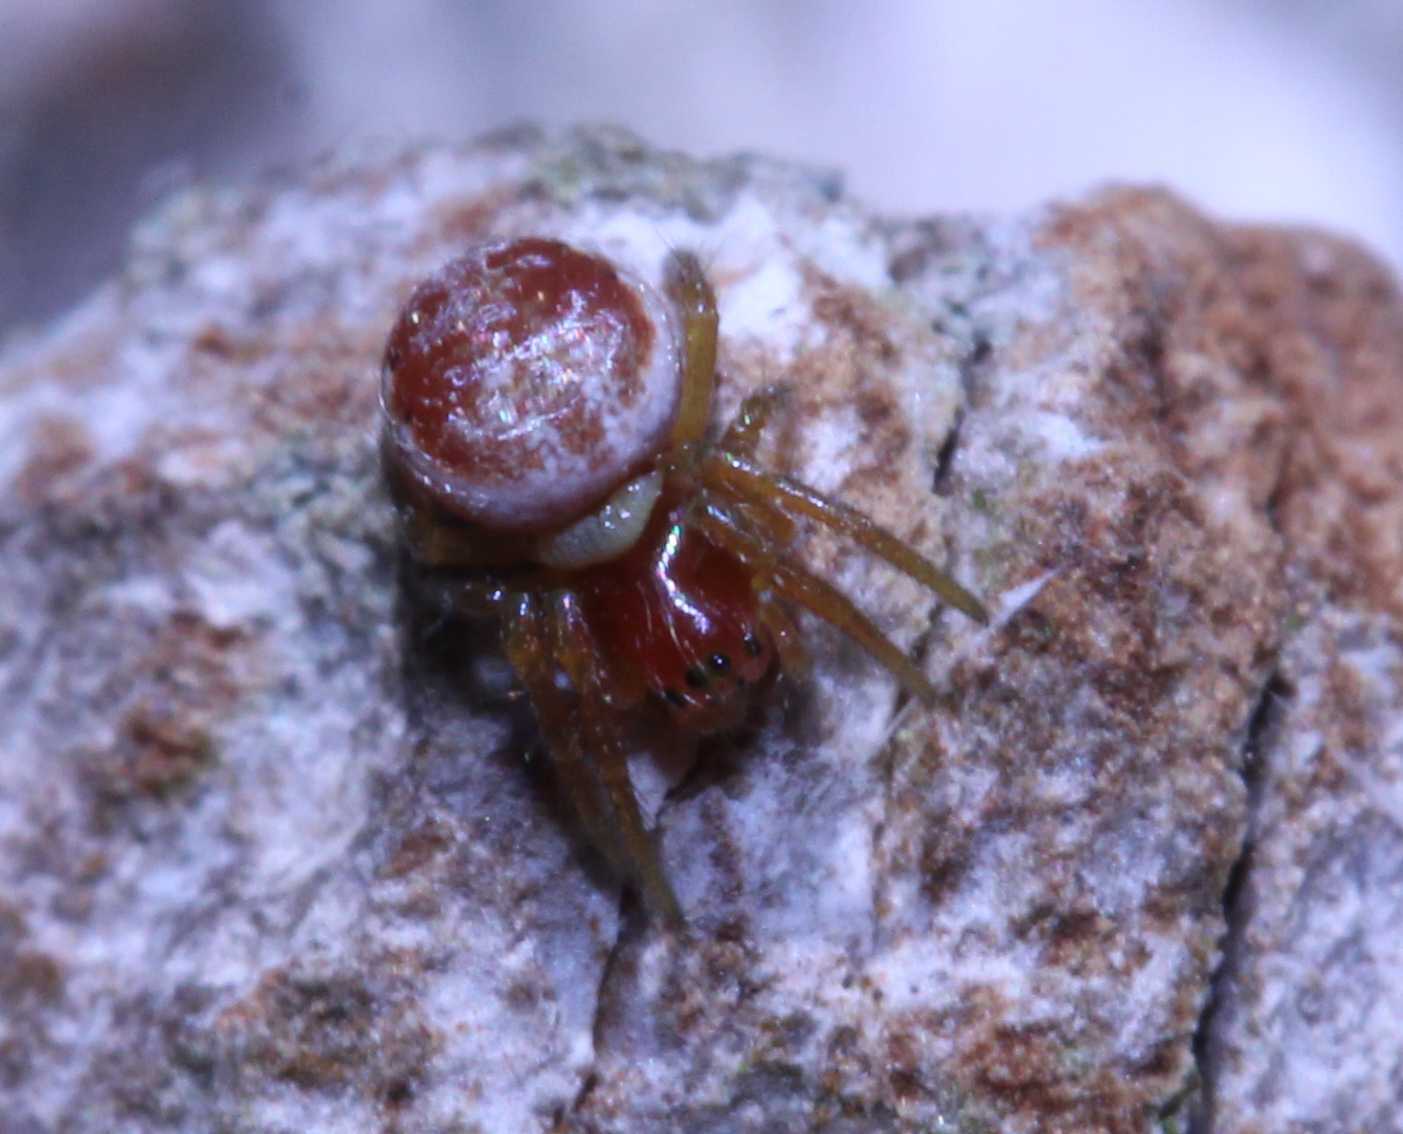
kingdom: Animalia
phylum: Arthropoda
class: Arachnida
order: Araneae
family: Araneidae
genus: Araniella
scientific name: Araniella
